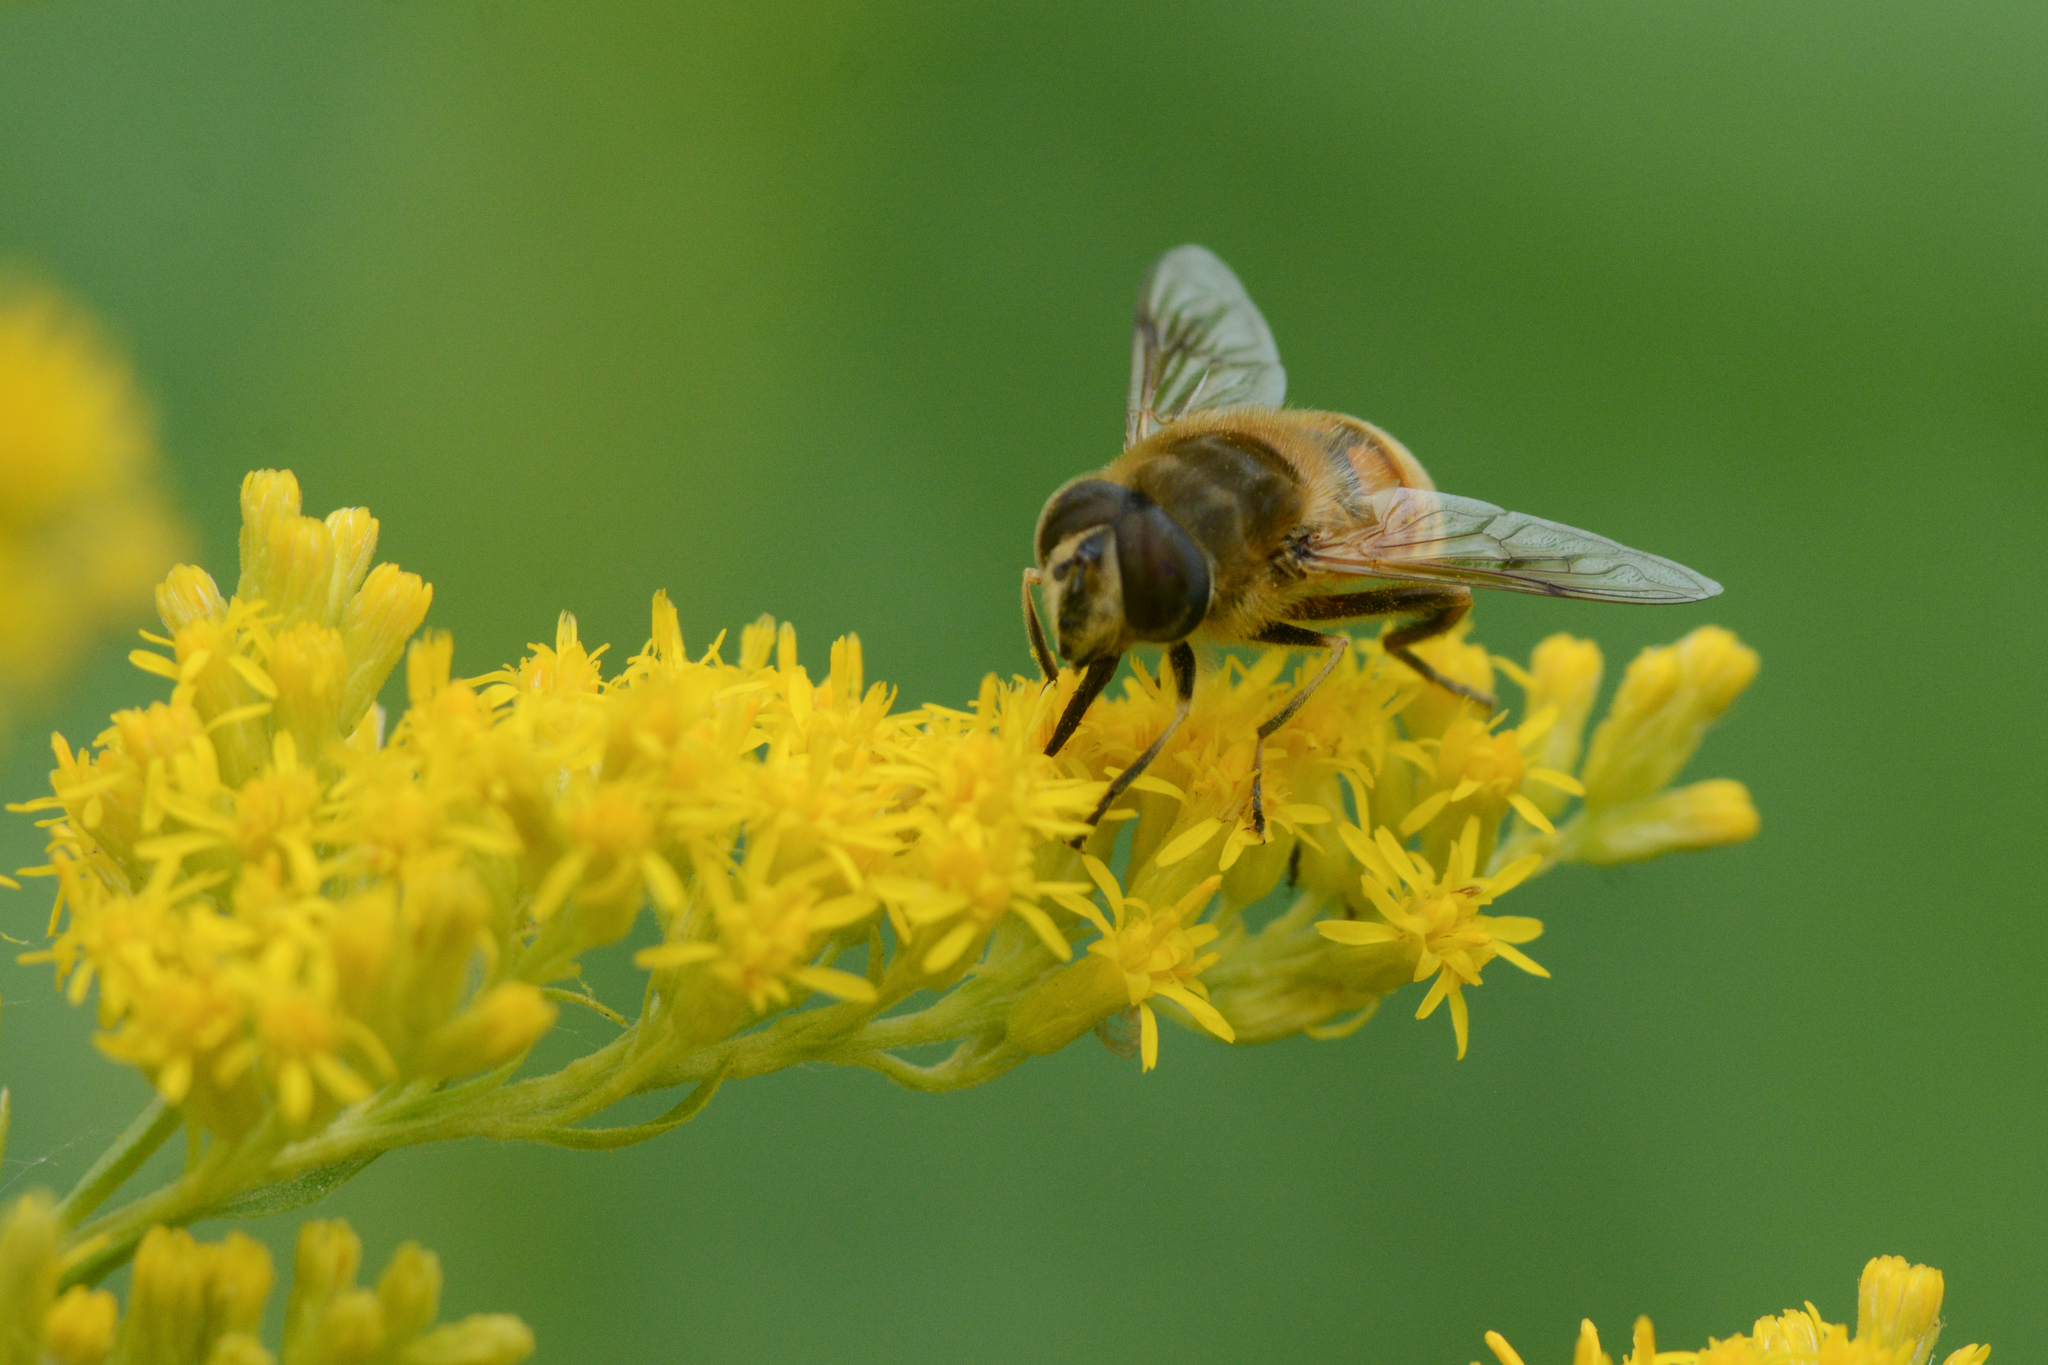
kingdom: Animalia
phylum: Arthropoda
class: Insecta
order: Diptera
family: Syrphidae
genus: Eristalis
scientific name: Eristalis tenax
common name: Drone fly
